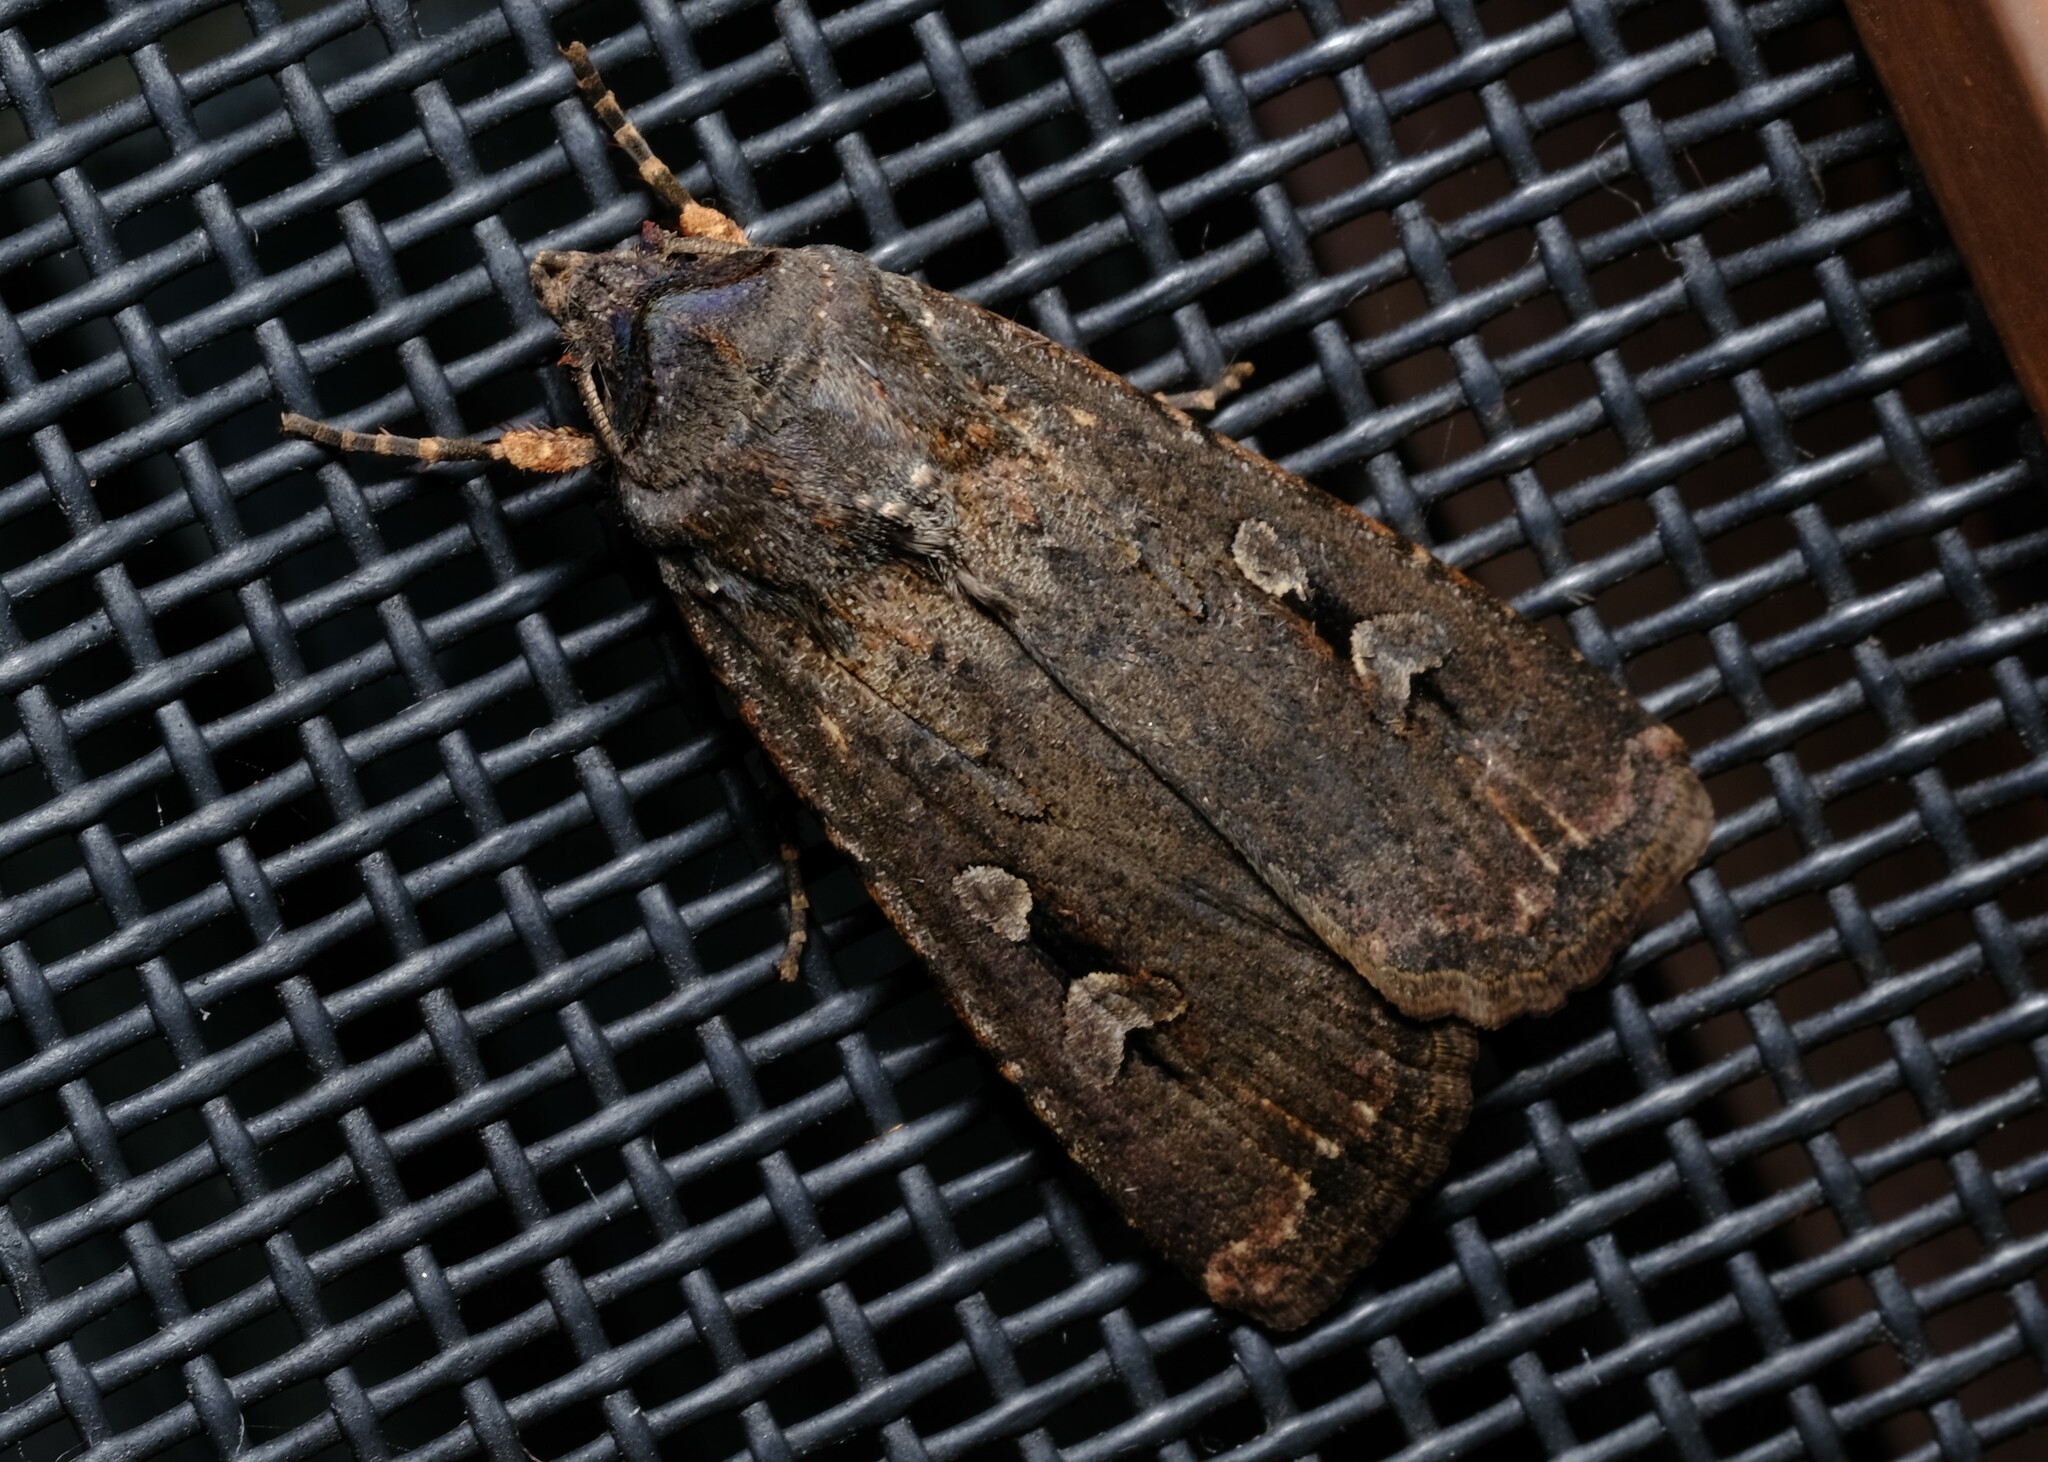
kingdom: Animalia
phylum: Arthropoda
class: Insecta
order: Lepidoptera
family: Noctuidae
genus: Agrotis
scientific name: Agrotis infusa
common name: Bogong moth
